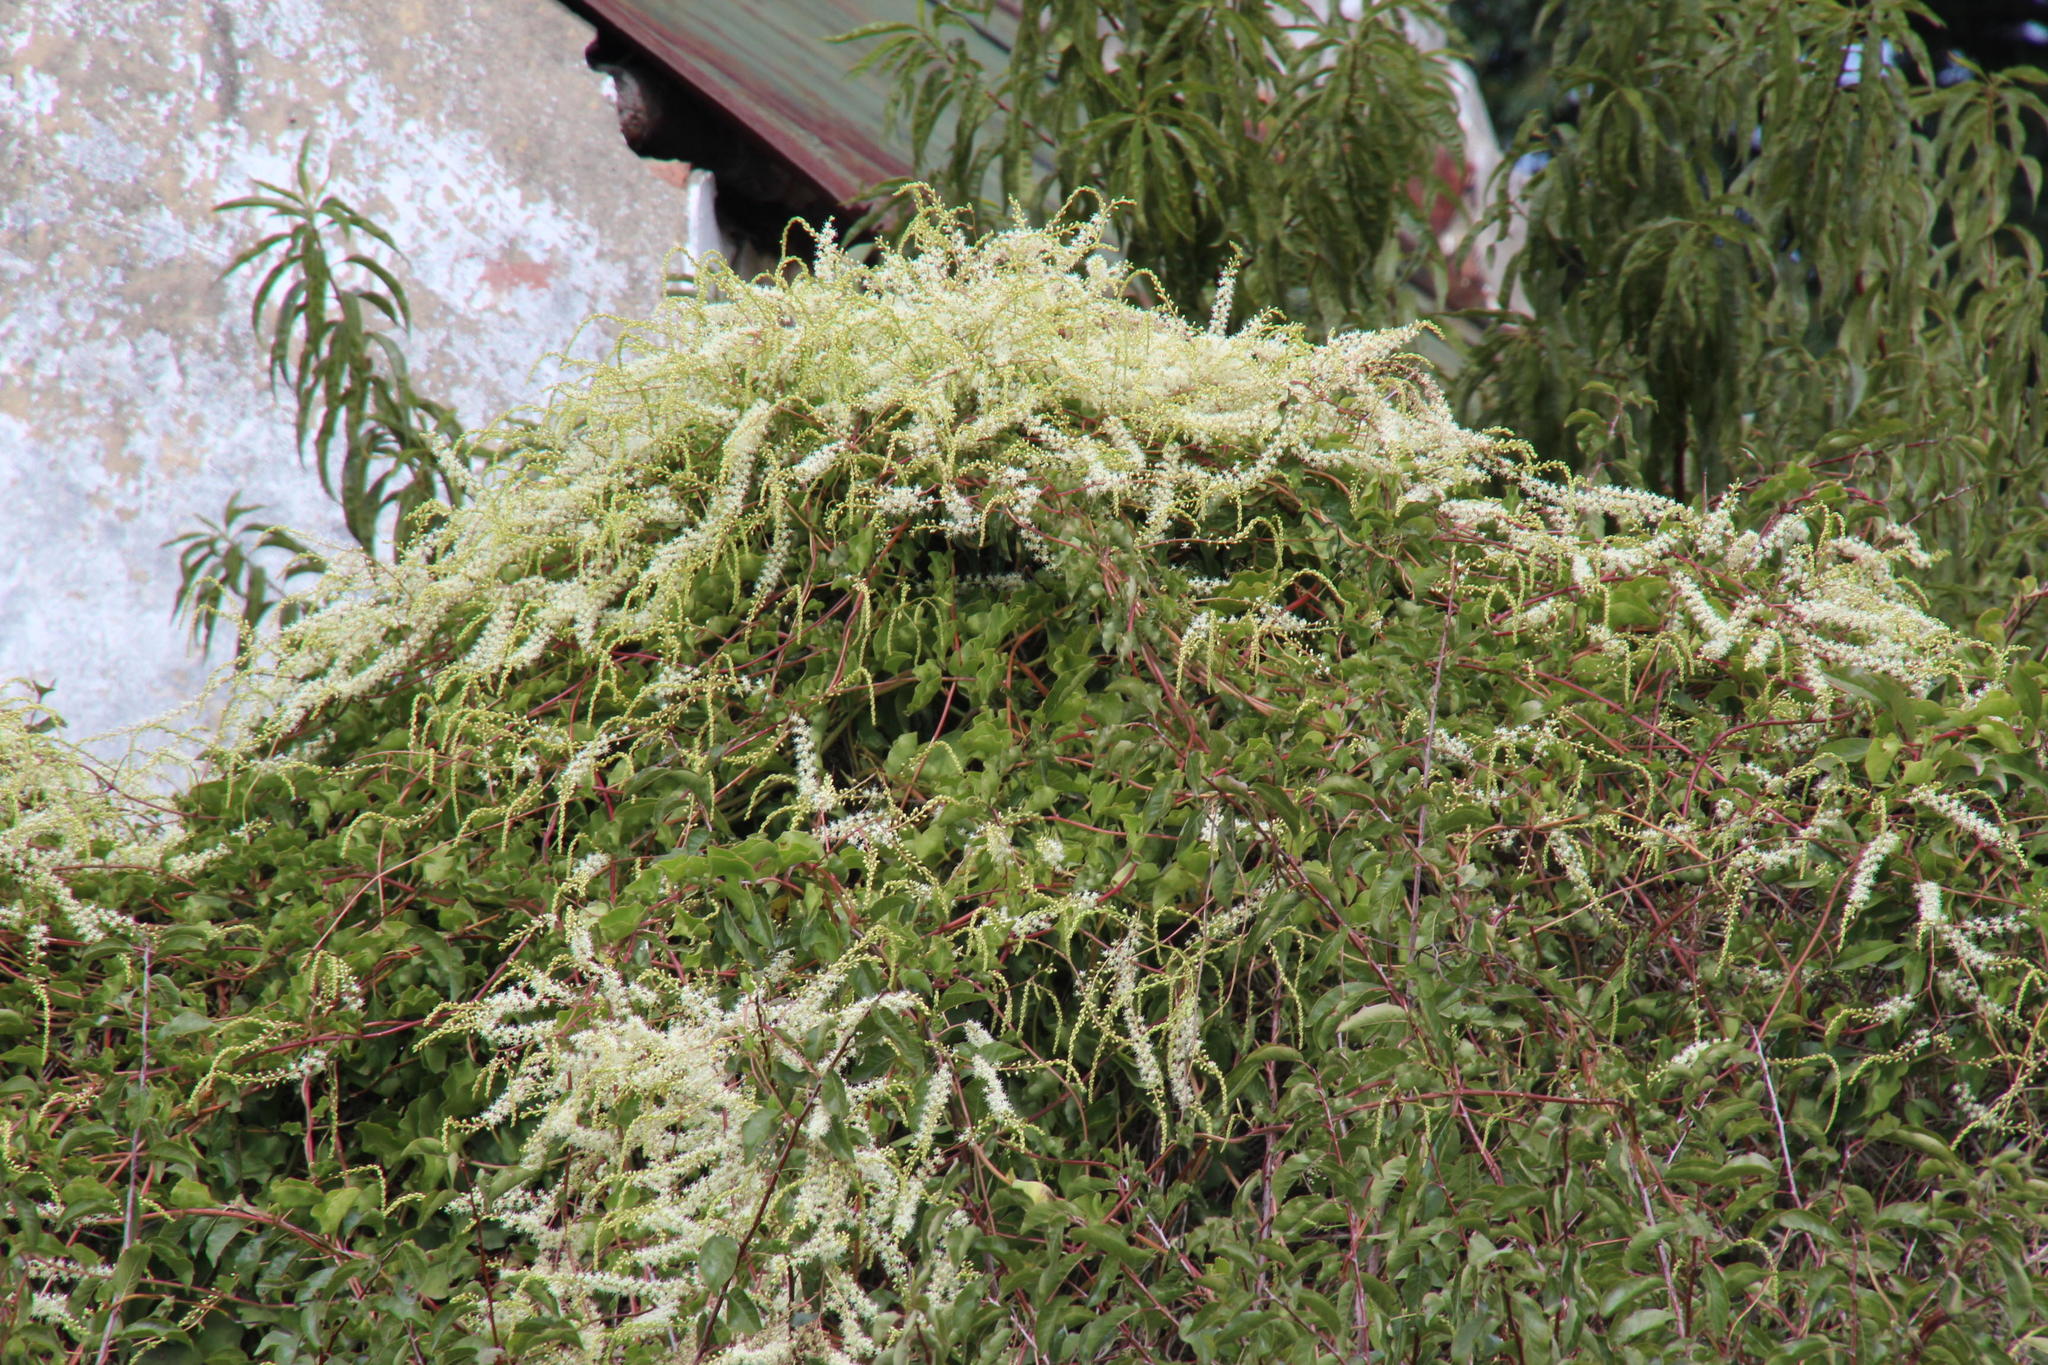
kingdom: Plantae
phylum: Tracheophyta
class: Magnoliopsida
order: Caryophyllales
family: Basellaceae
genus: Anredera
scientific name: Anredera cordifolia
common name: Heartleaf madeiravine
